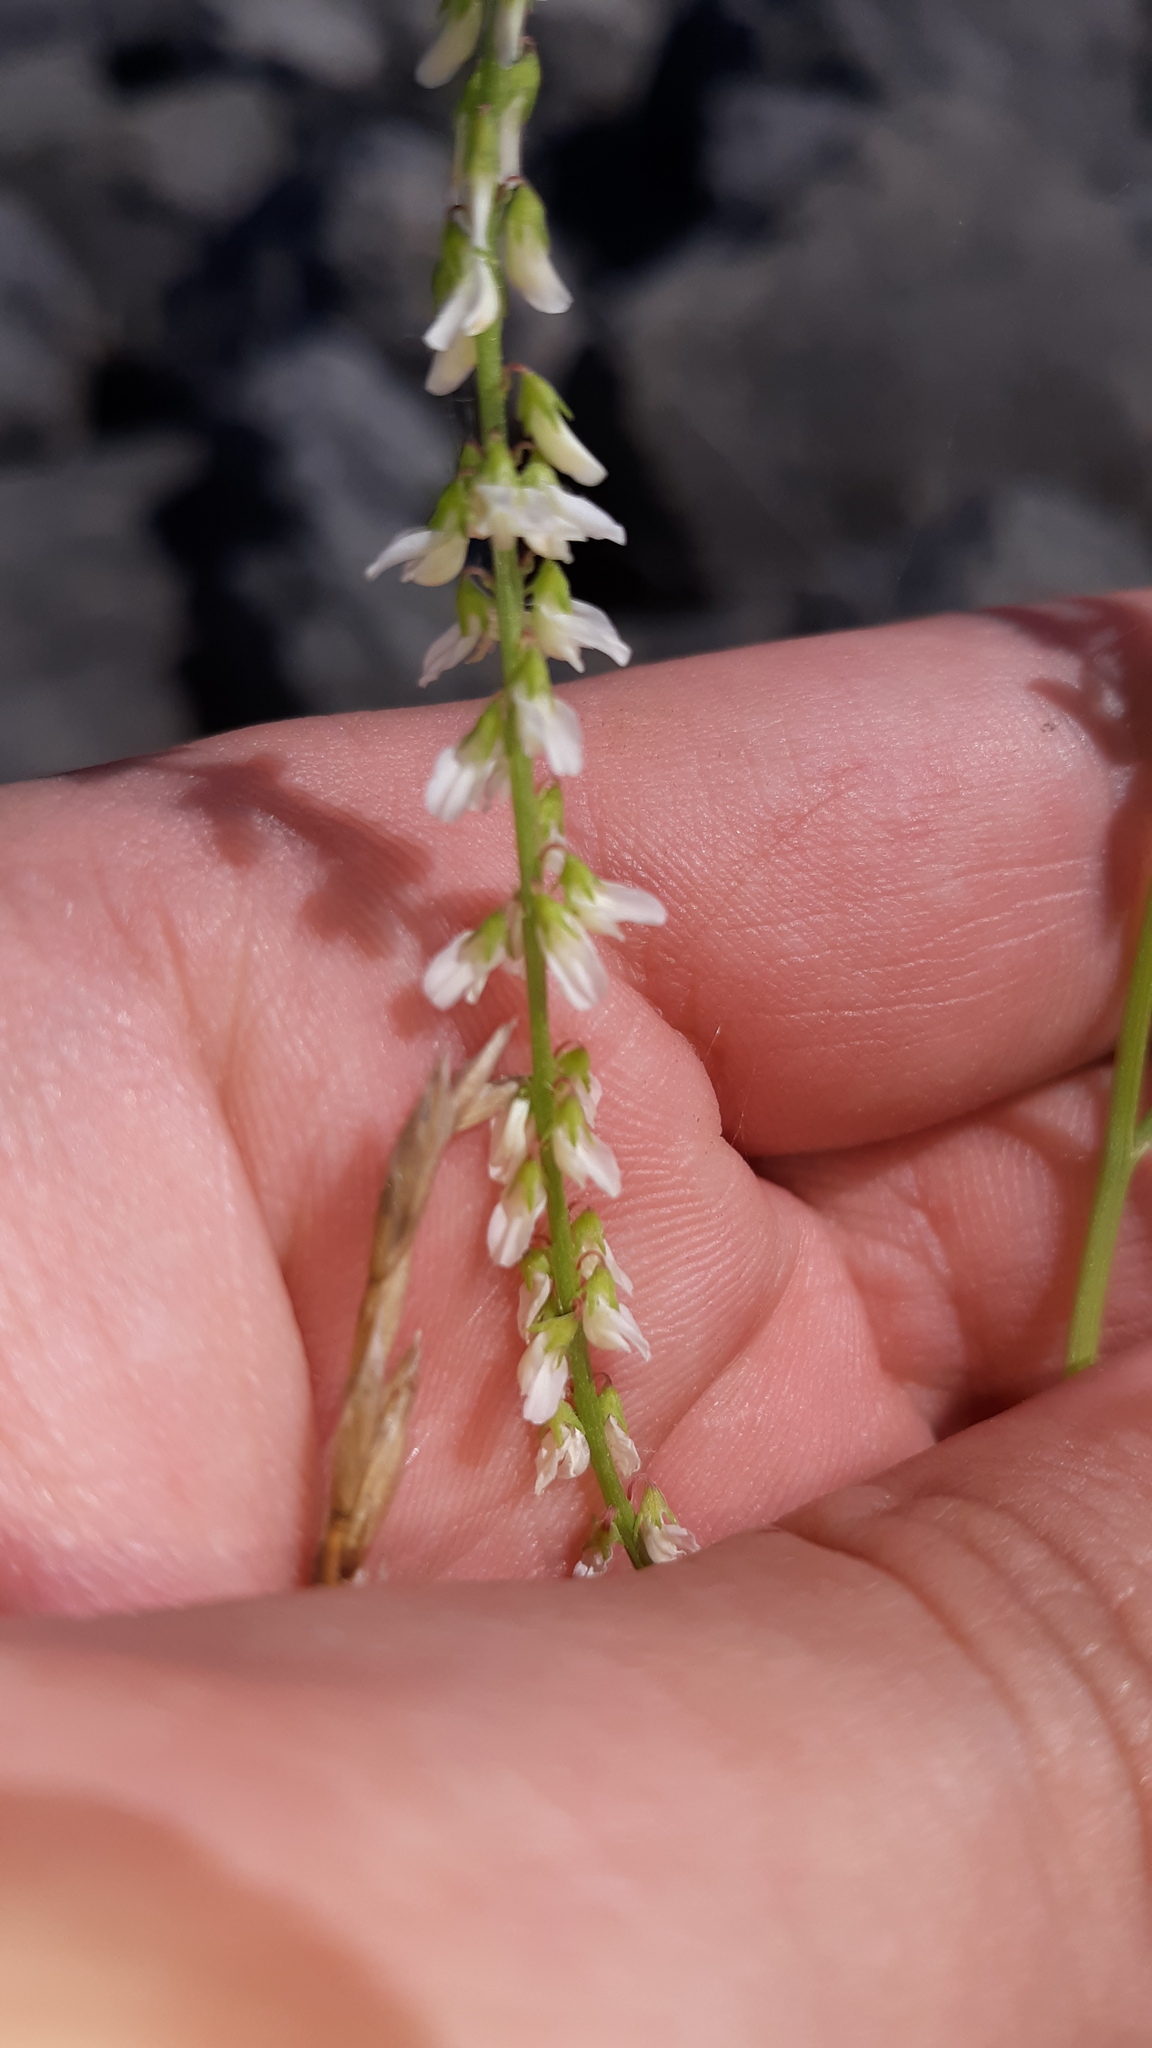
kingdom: Plantae
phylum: Tracheophyta
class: Magnoliopsida
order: Fabales
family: Fabaceae
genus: Melilotus
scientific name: Melilotus albus
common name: White melilot
